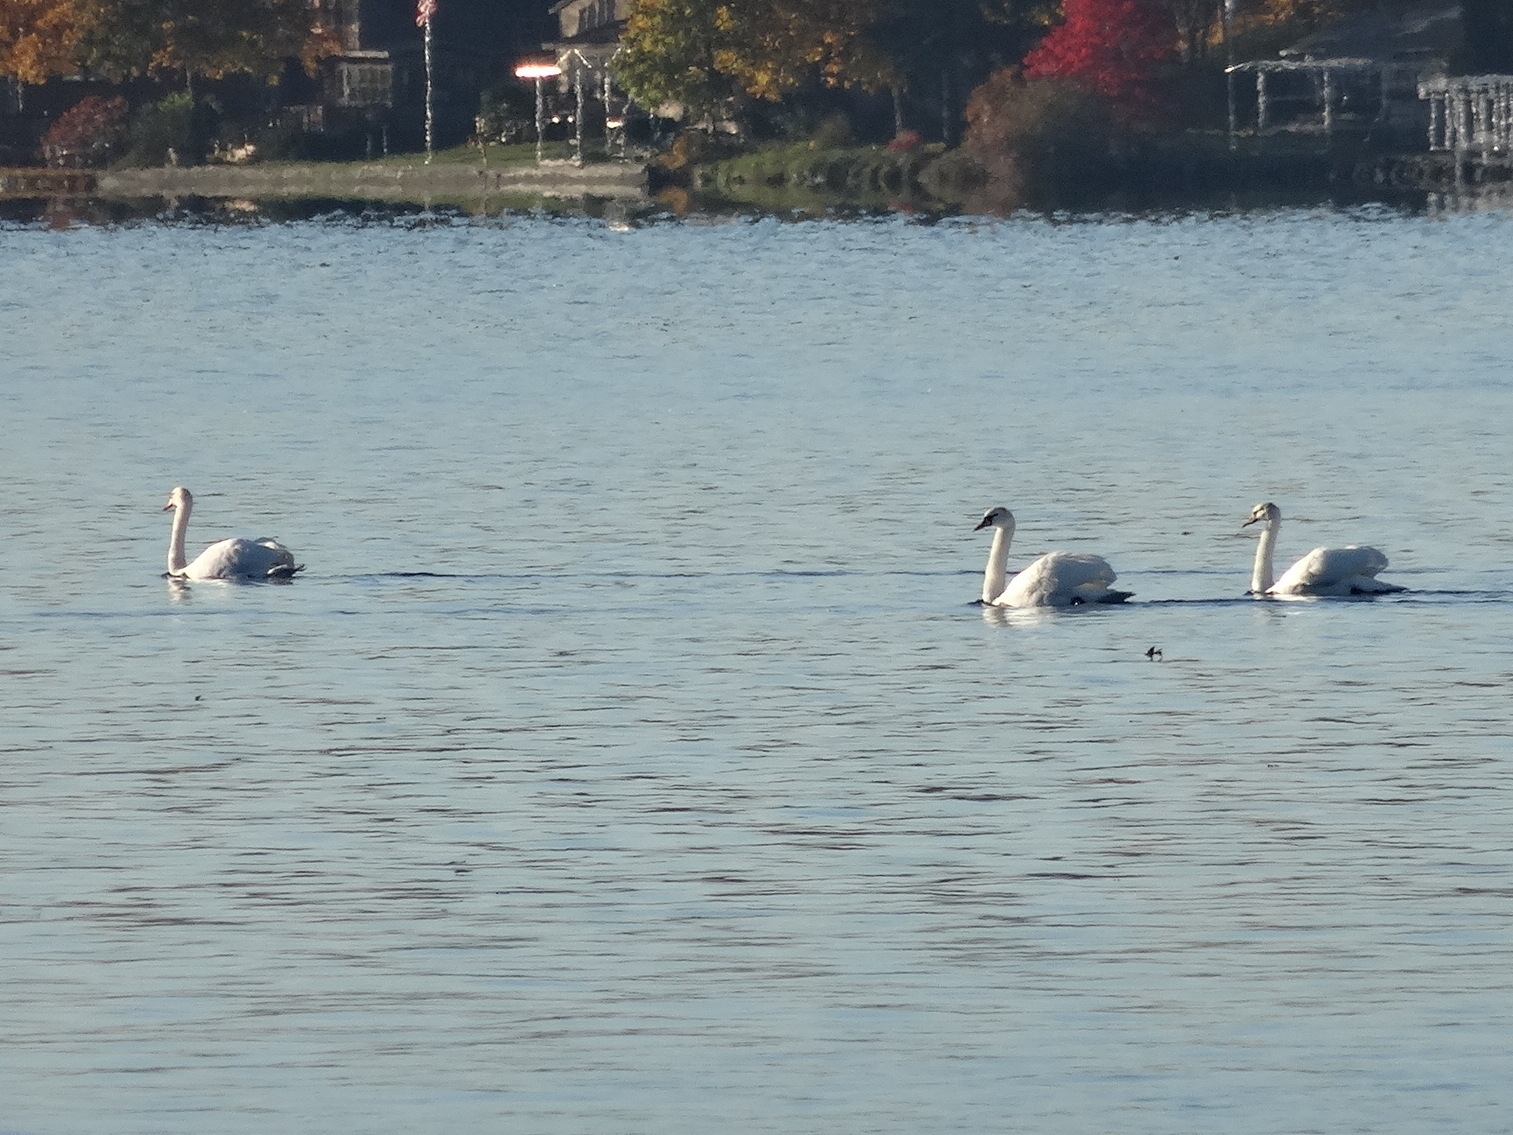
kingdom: Animalia
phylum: Chordata
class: Aves
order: Anseriformes
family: Anatidae
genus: Cygnus
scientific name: Cygnus olor
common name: Mute swan
